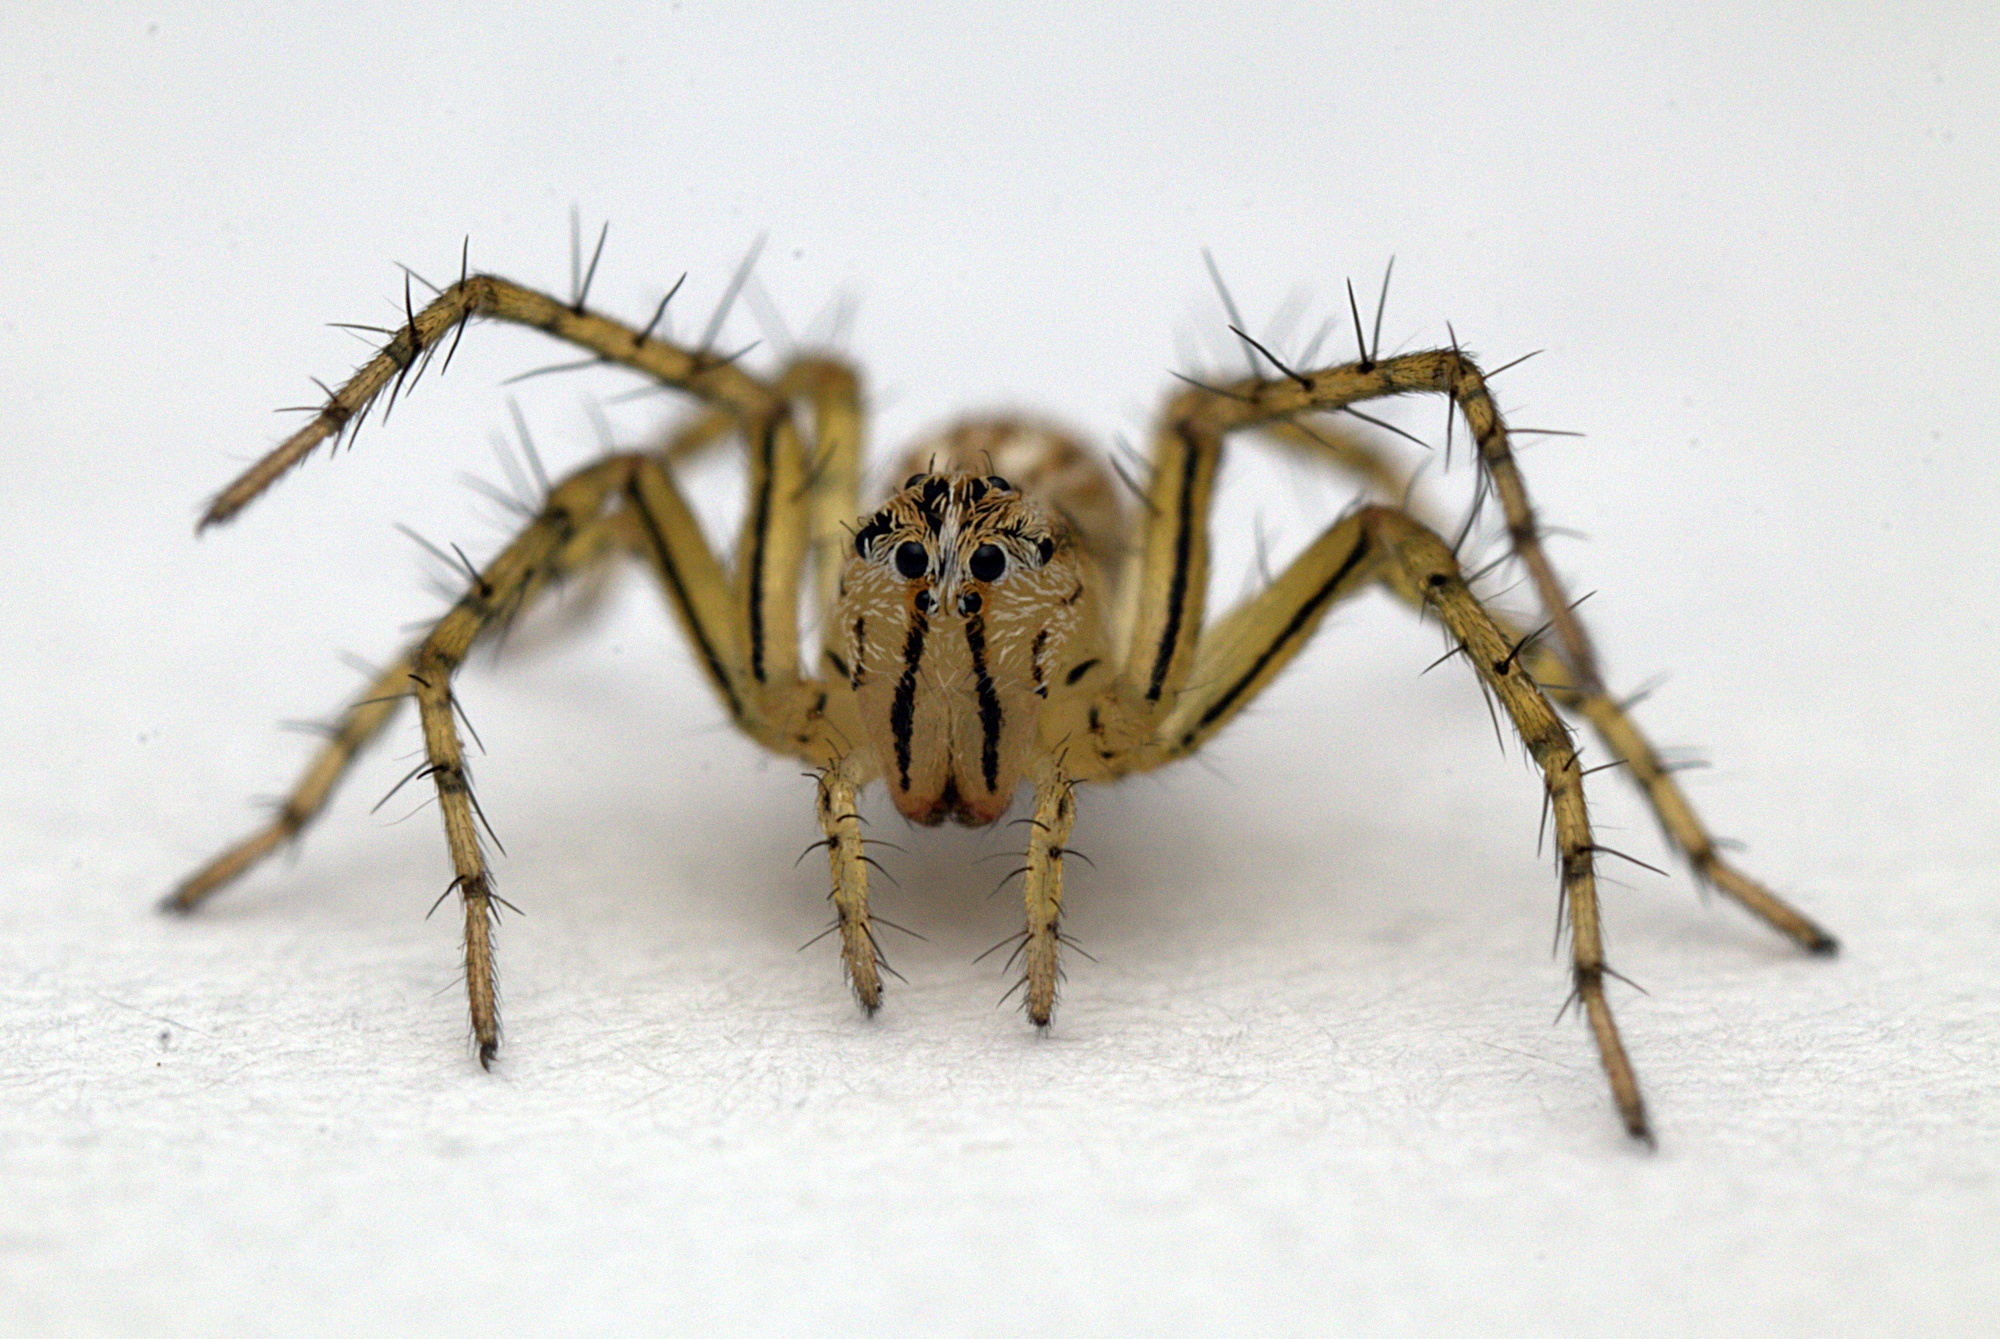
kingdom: Animalia
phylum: Arthropoda
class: Arachnida
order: Araneae
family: Oxyopidae
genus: Oxyopes
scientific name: Oxyopes gracilipes
